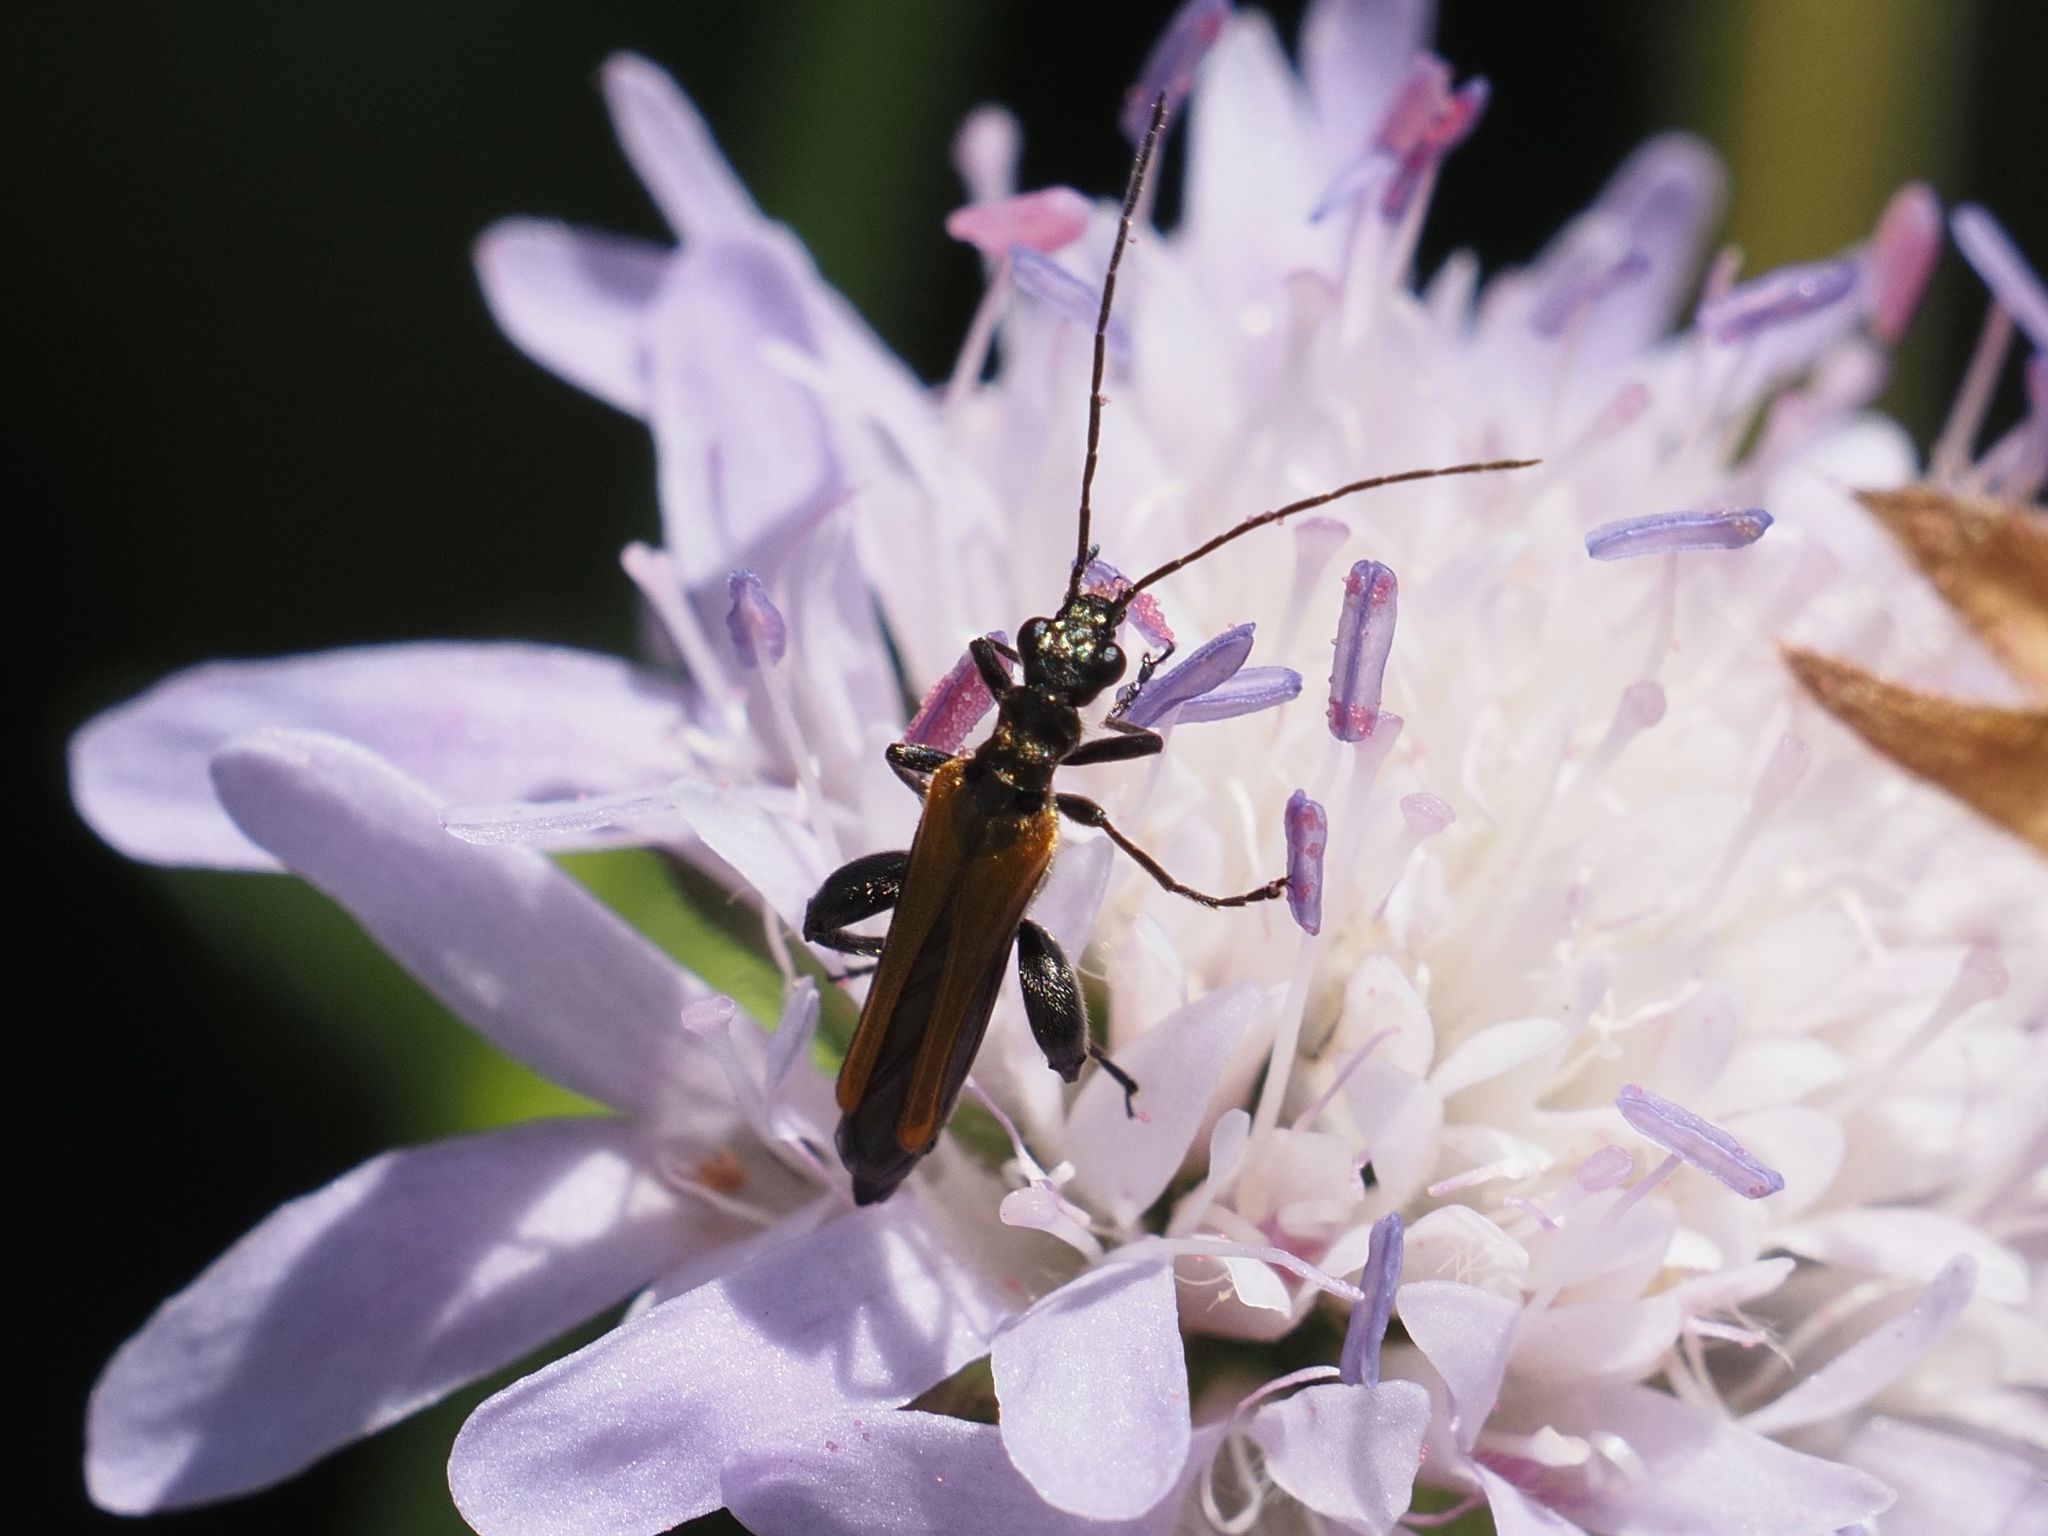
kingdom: Animalia
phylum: Arthropoda
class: Insecta
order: Coleoptera
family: Oedemeridae
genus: Oedemera
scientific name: Oedemera femorata
